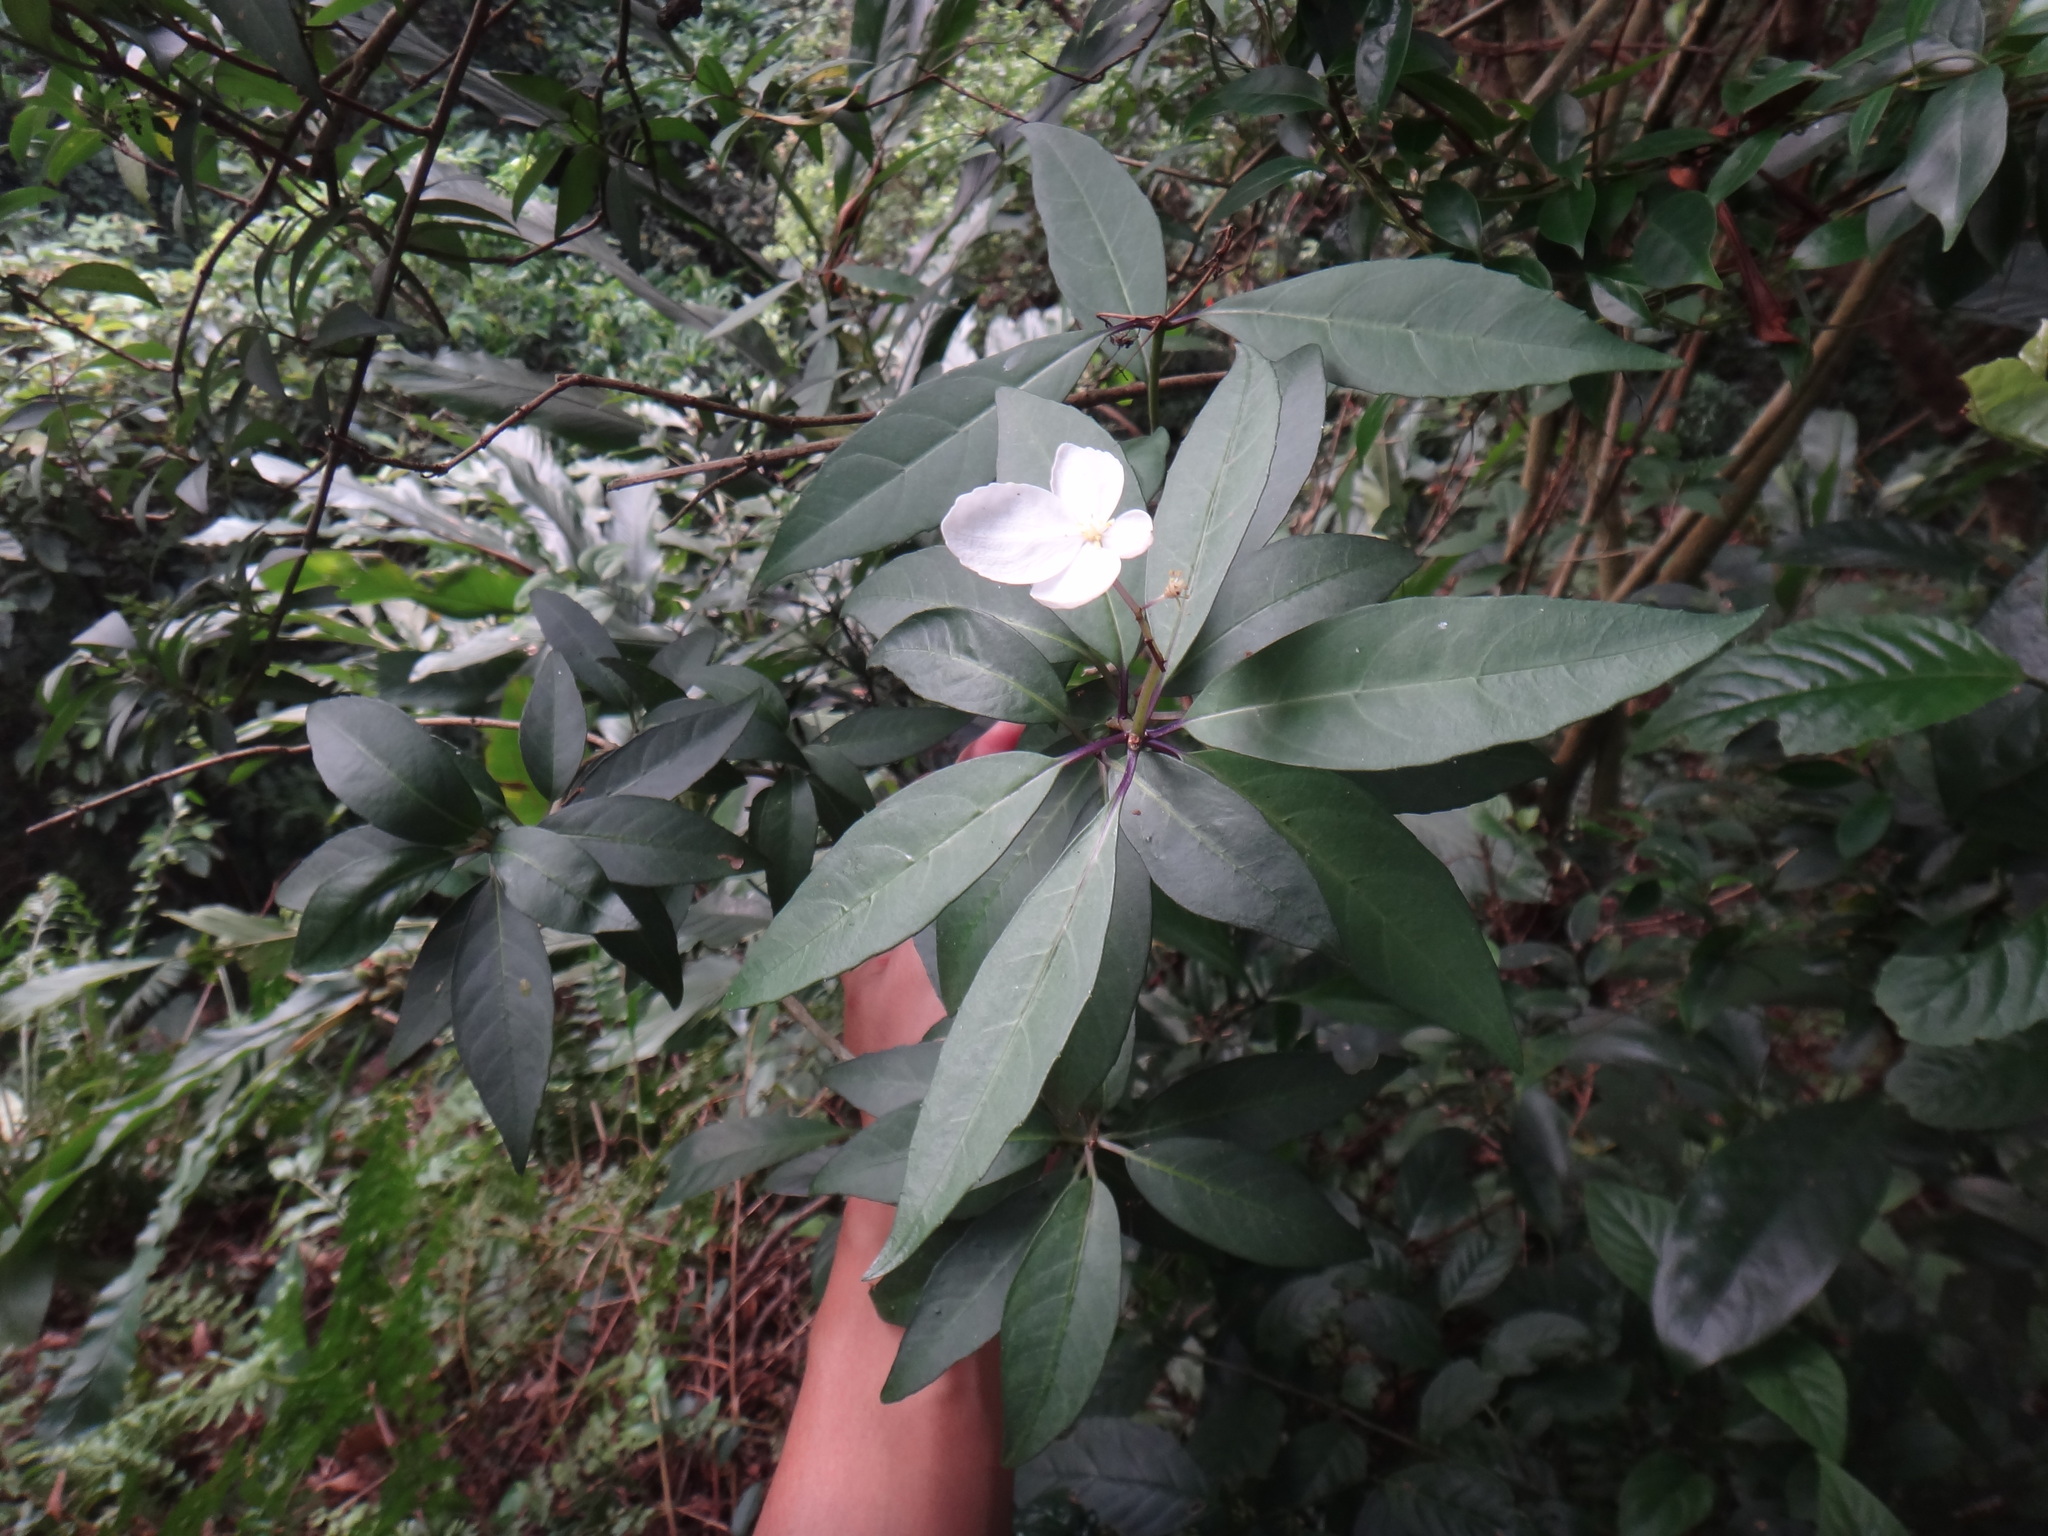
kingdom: Plantae
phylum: Tracheophyta
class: Magnoliopsida
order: Cornales
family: Hydrangeaceae
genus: Hydrangea
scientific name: Hydrangea chinensis
